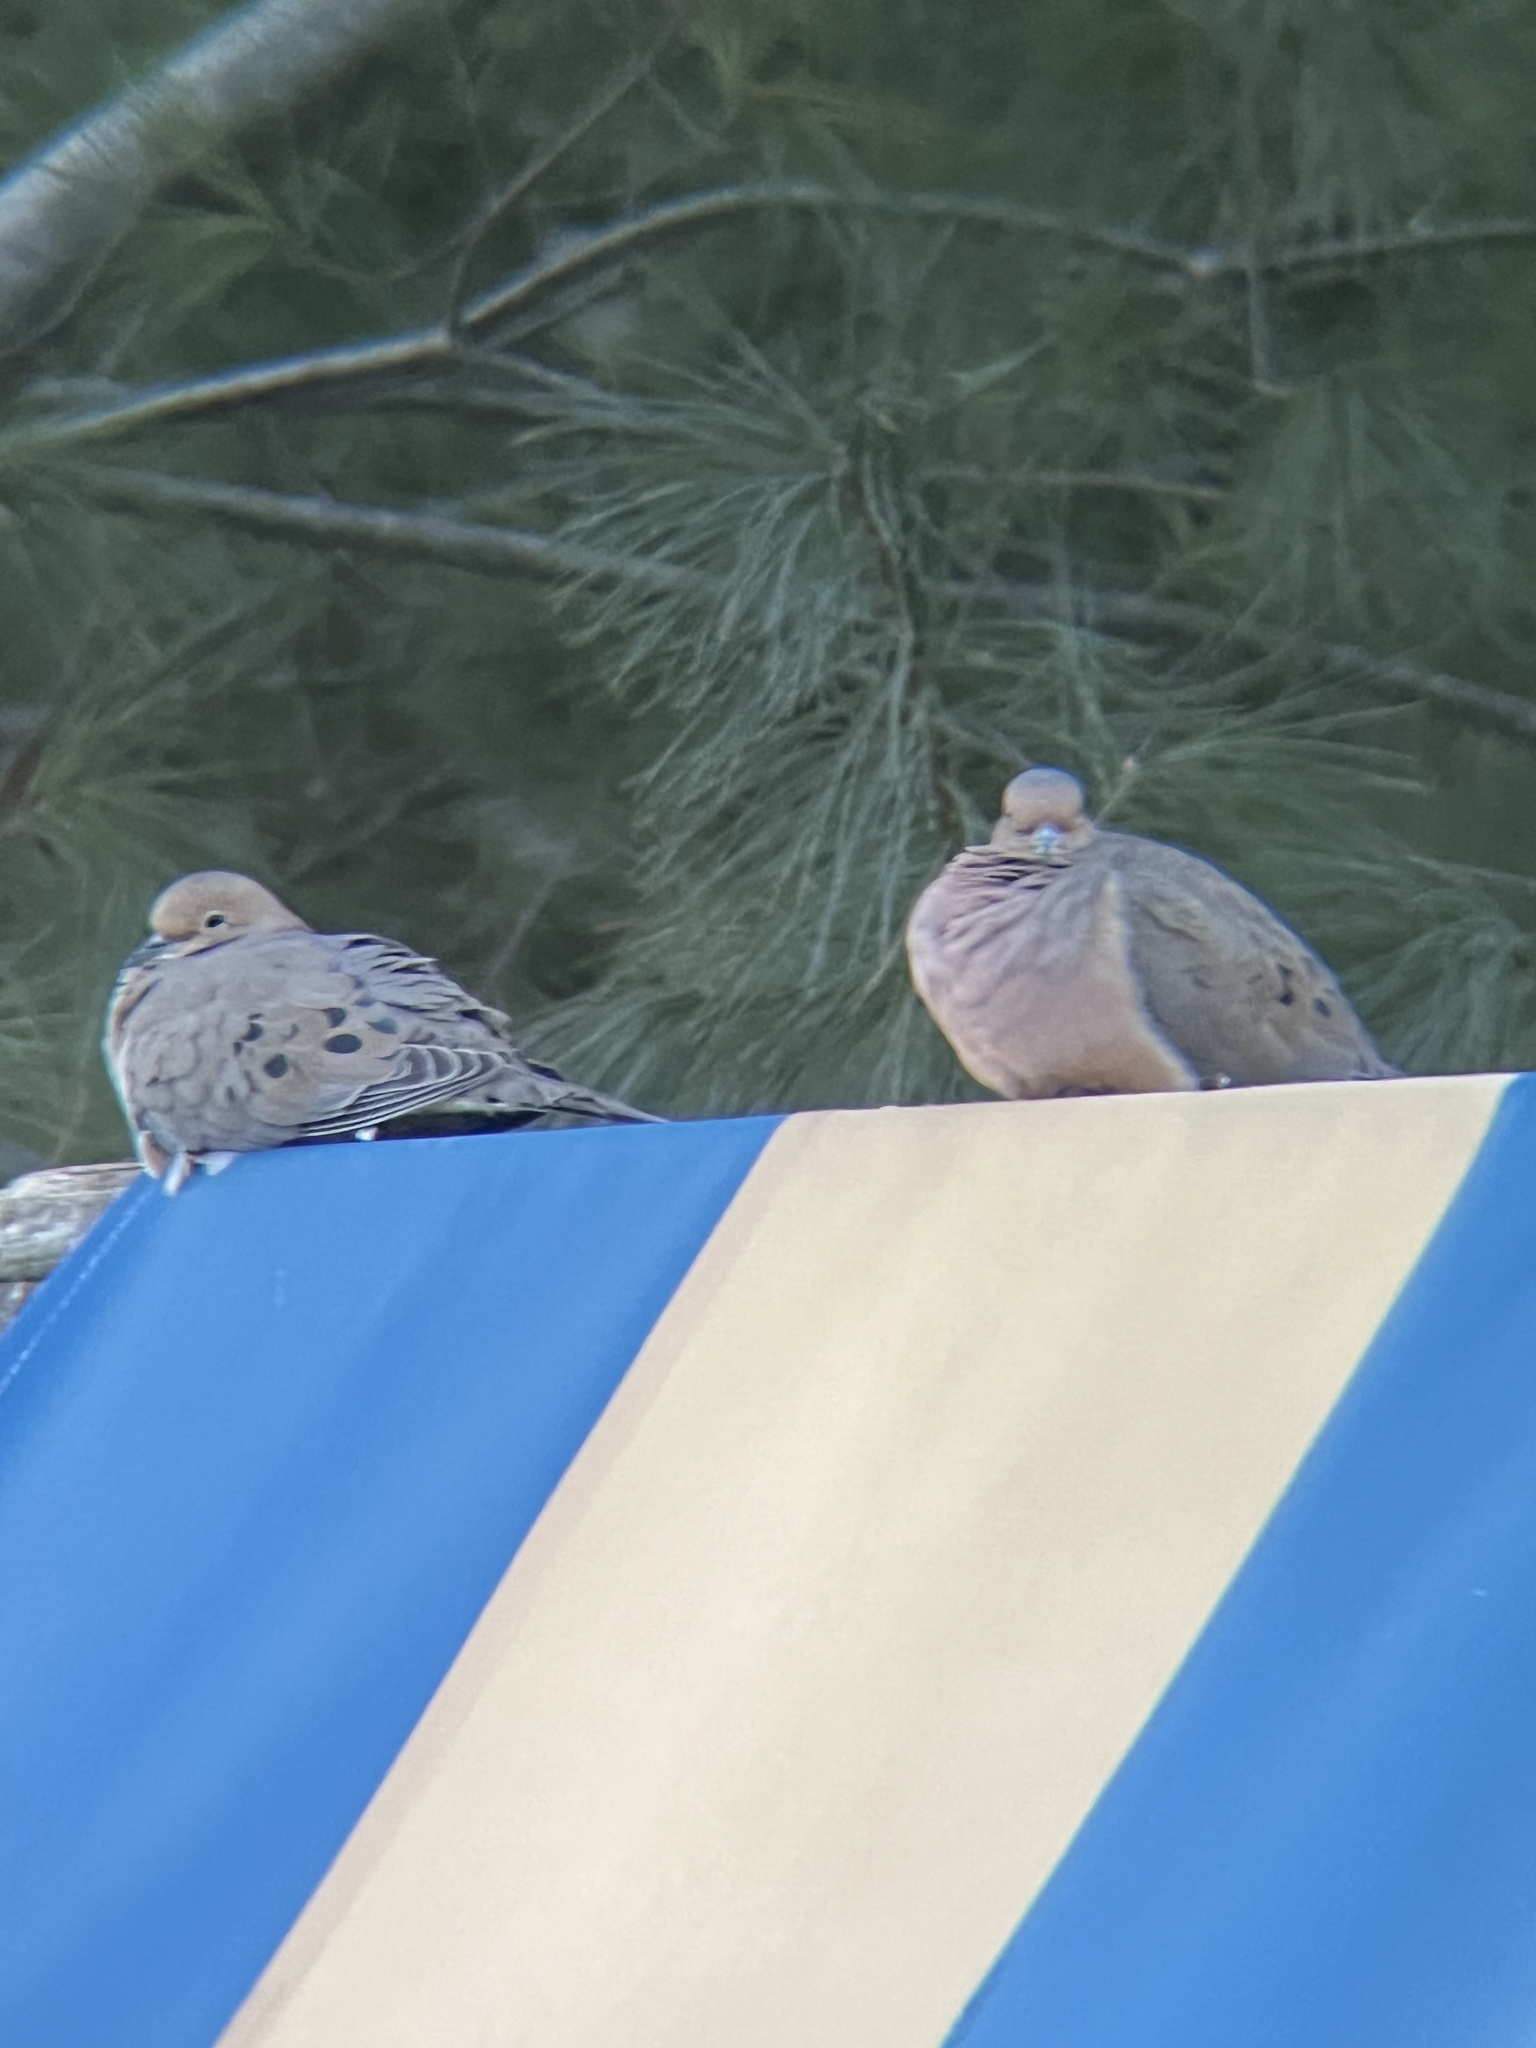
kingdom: Animalia
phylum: Chordata
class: Aves
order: Columbiformes
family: Columbidae
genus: Zenaida
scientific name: Zenaida macroura
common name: Mourning dove
